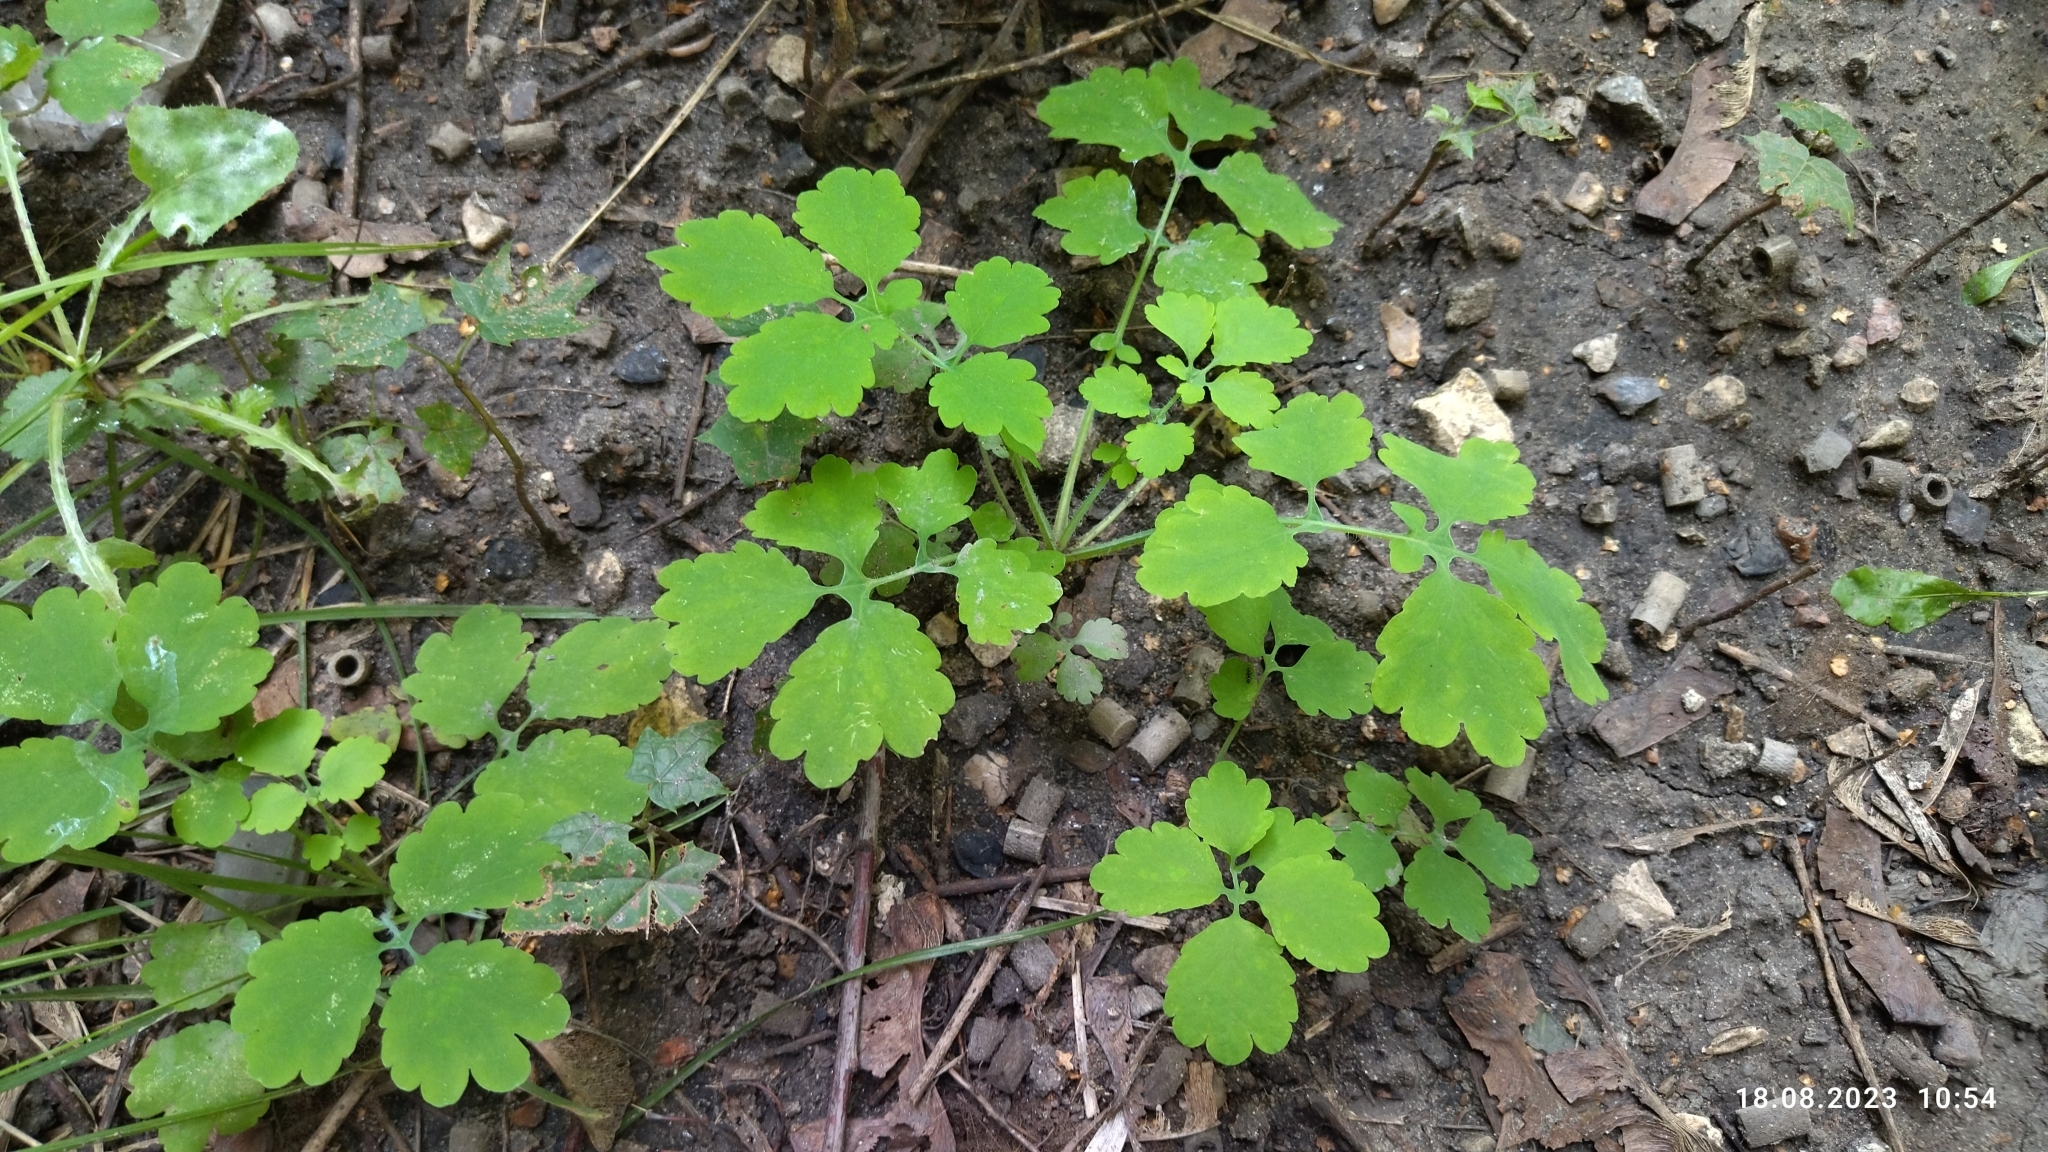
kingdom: Plantae
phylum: Tracheophyta
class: Magnoliopsida
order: Ranunculales
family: Papaveraceae
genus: Chelidonium
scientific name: Chelidonium majus
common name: Greater celandine
